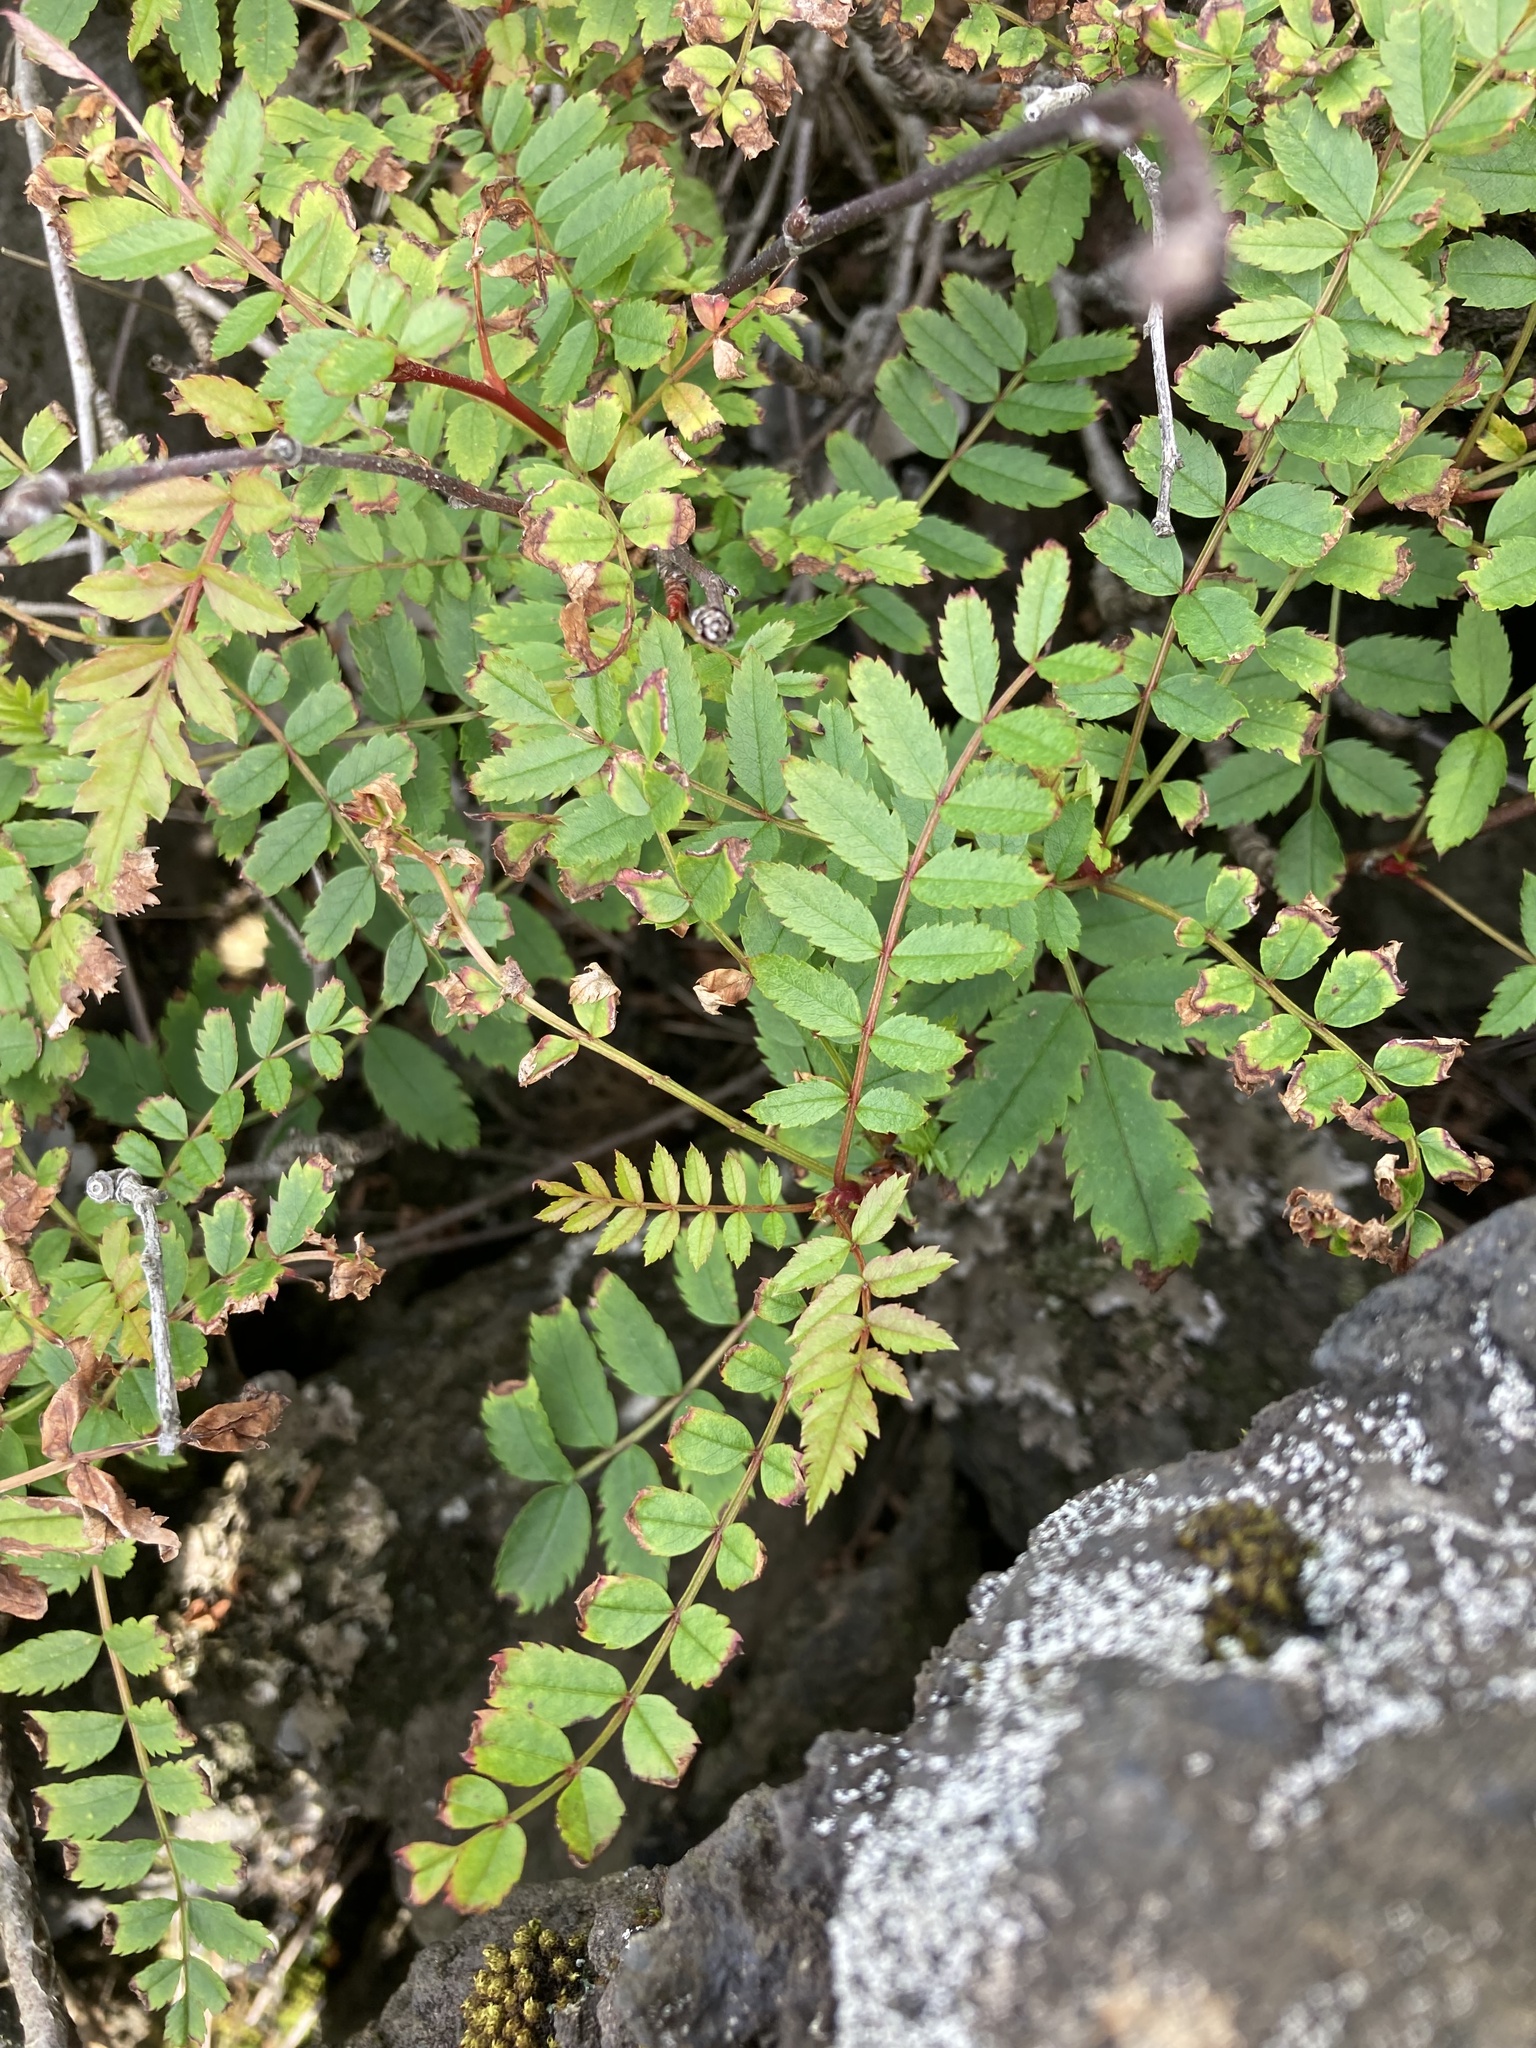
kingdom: Plantae
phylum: Tracheophyta
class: Magnoliopsida
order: Rosales
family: Rosaceae
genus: Sorbus
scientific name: Sorbus aucuparia
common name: Rowan
